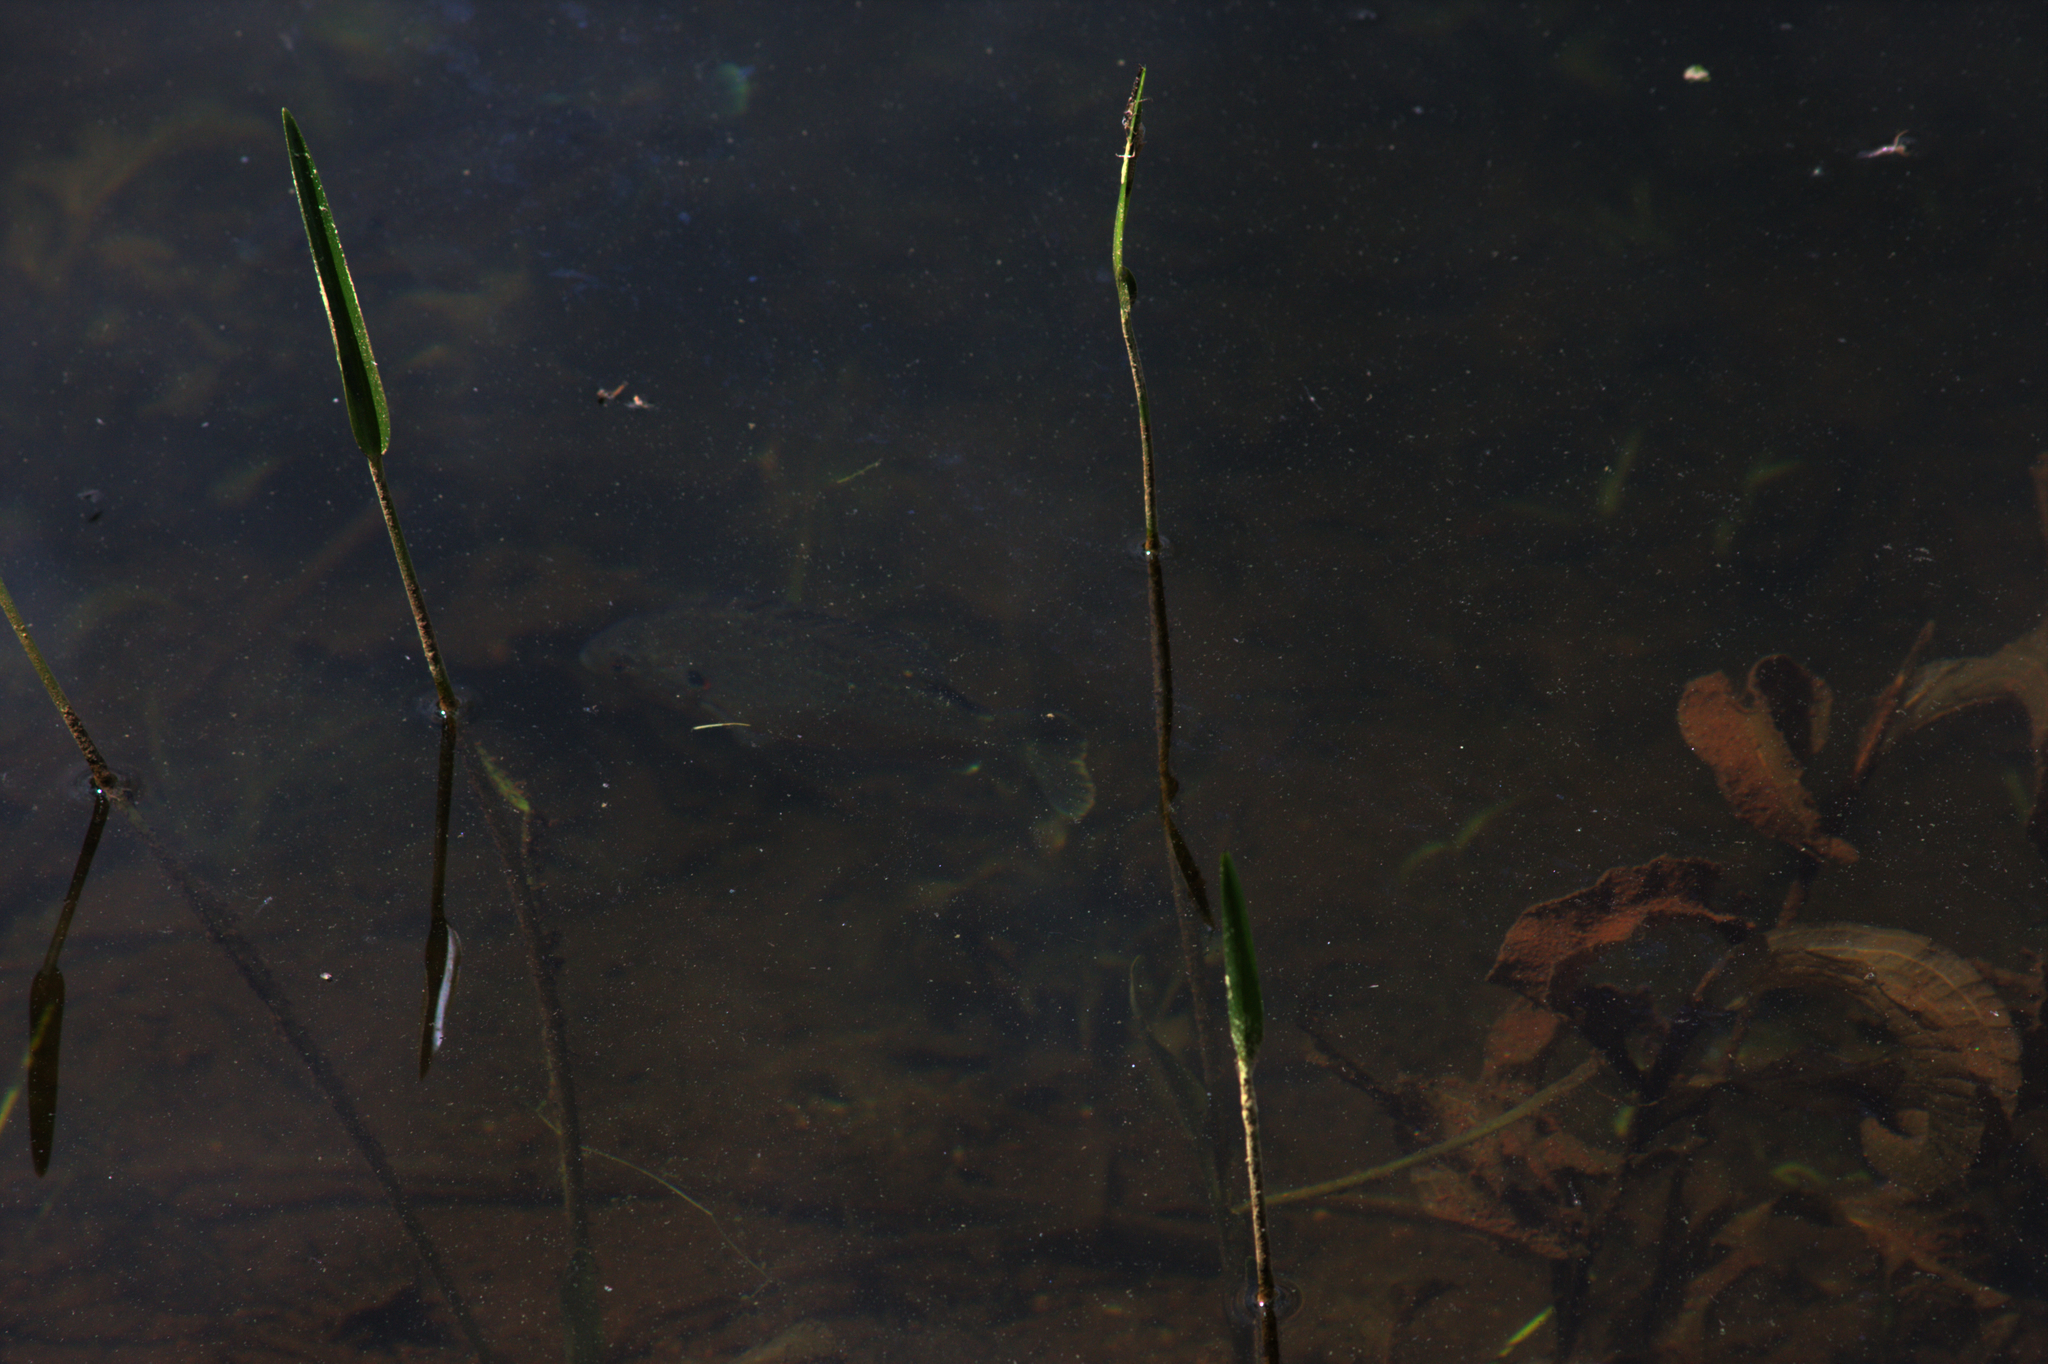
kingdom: Animalia
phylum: Chordata
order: Perciformes
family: Centrarchidae
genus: Lepomis
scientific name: Lepomis gibbosus
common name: Pumpkinseed
